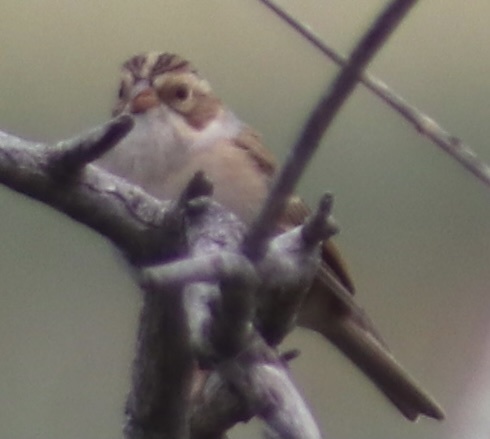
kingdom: Animalia
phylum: Chordata
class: Aves
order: Passeriformes
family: Passerellidae
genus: Spizella
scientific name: Spizella pallida
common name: Clay-colored sparrow
